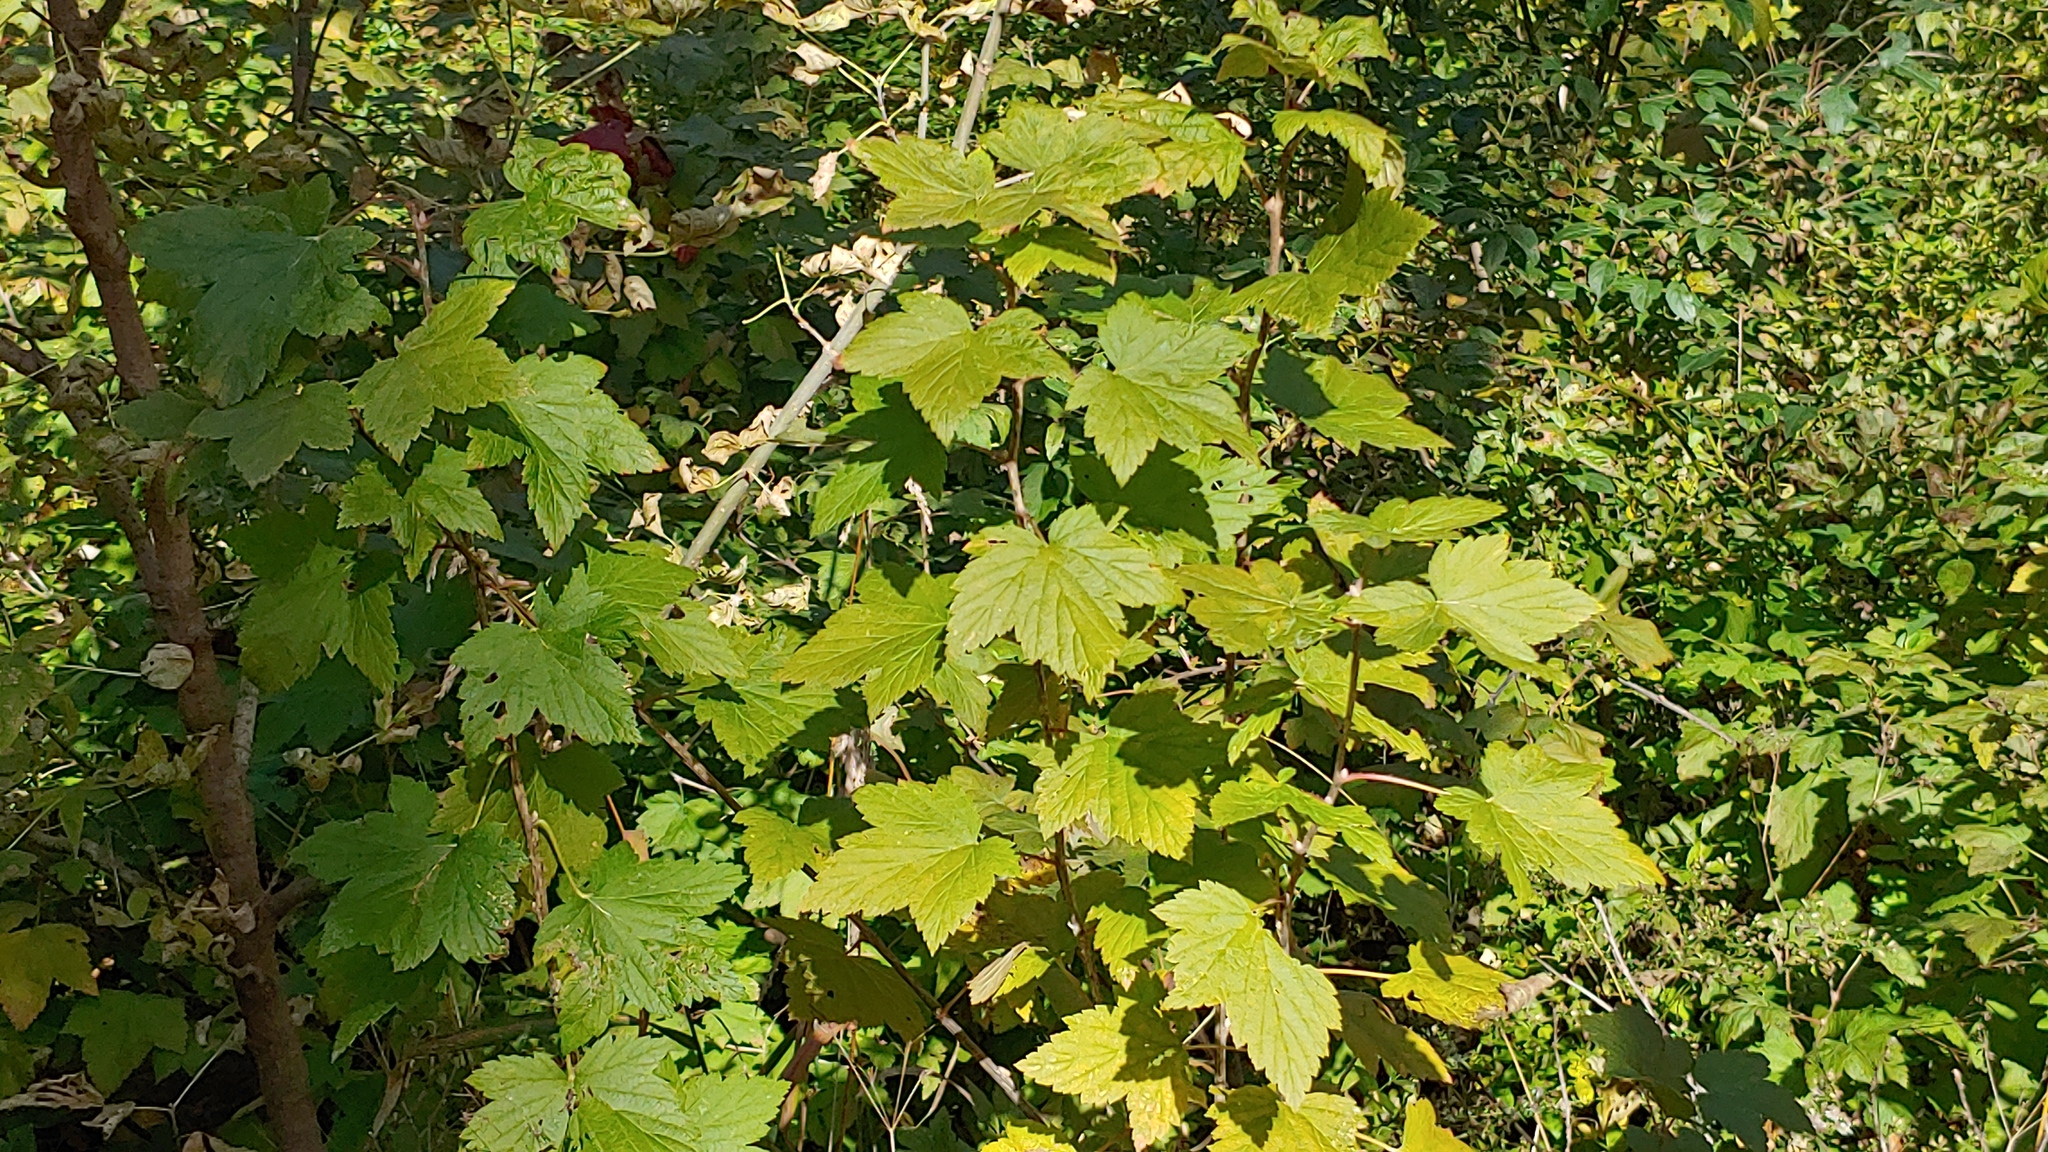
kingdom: Plantae
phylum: Tracheophyta
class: Magnoliopsida
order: Saxifragales
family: Grossulariaceae
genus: Ribes
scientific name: Ribes americanum
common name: American black currant
